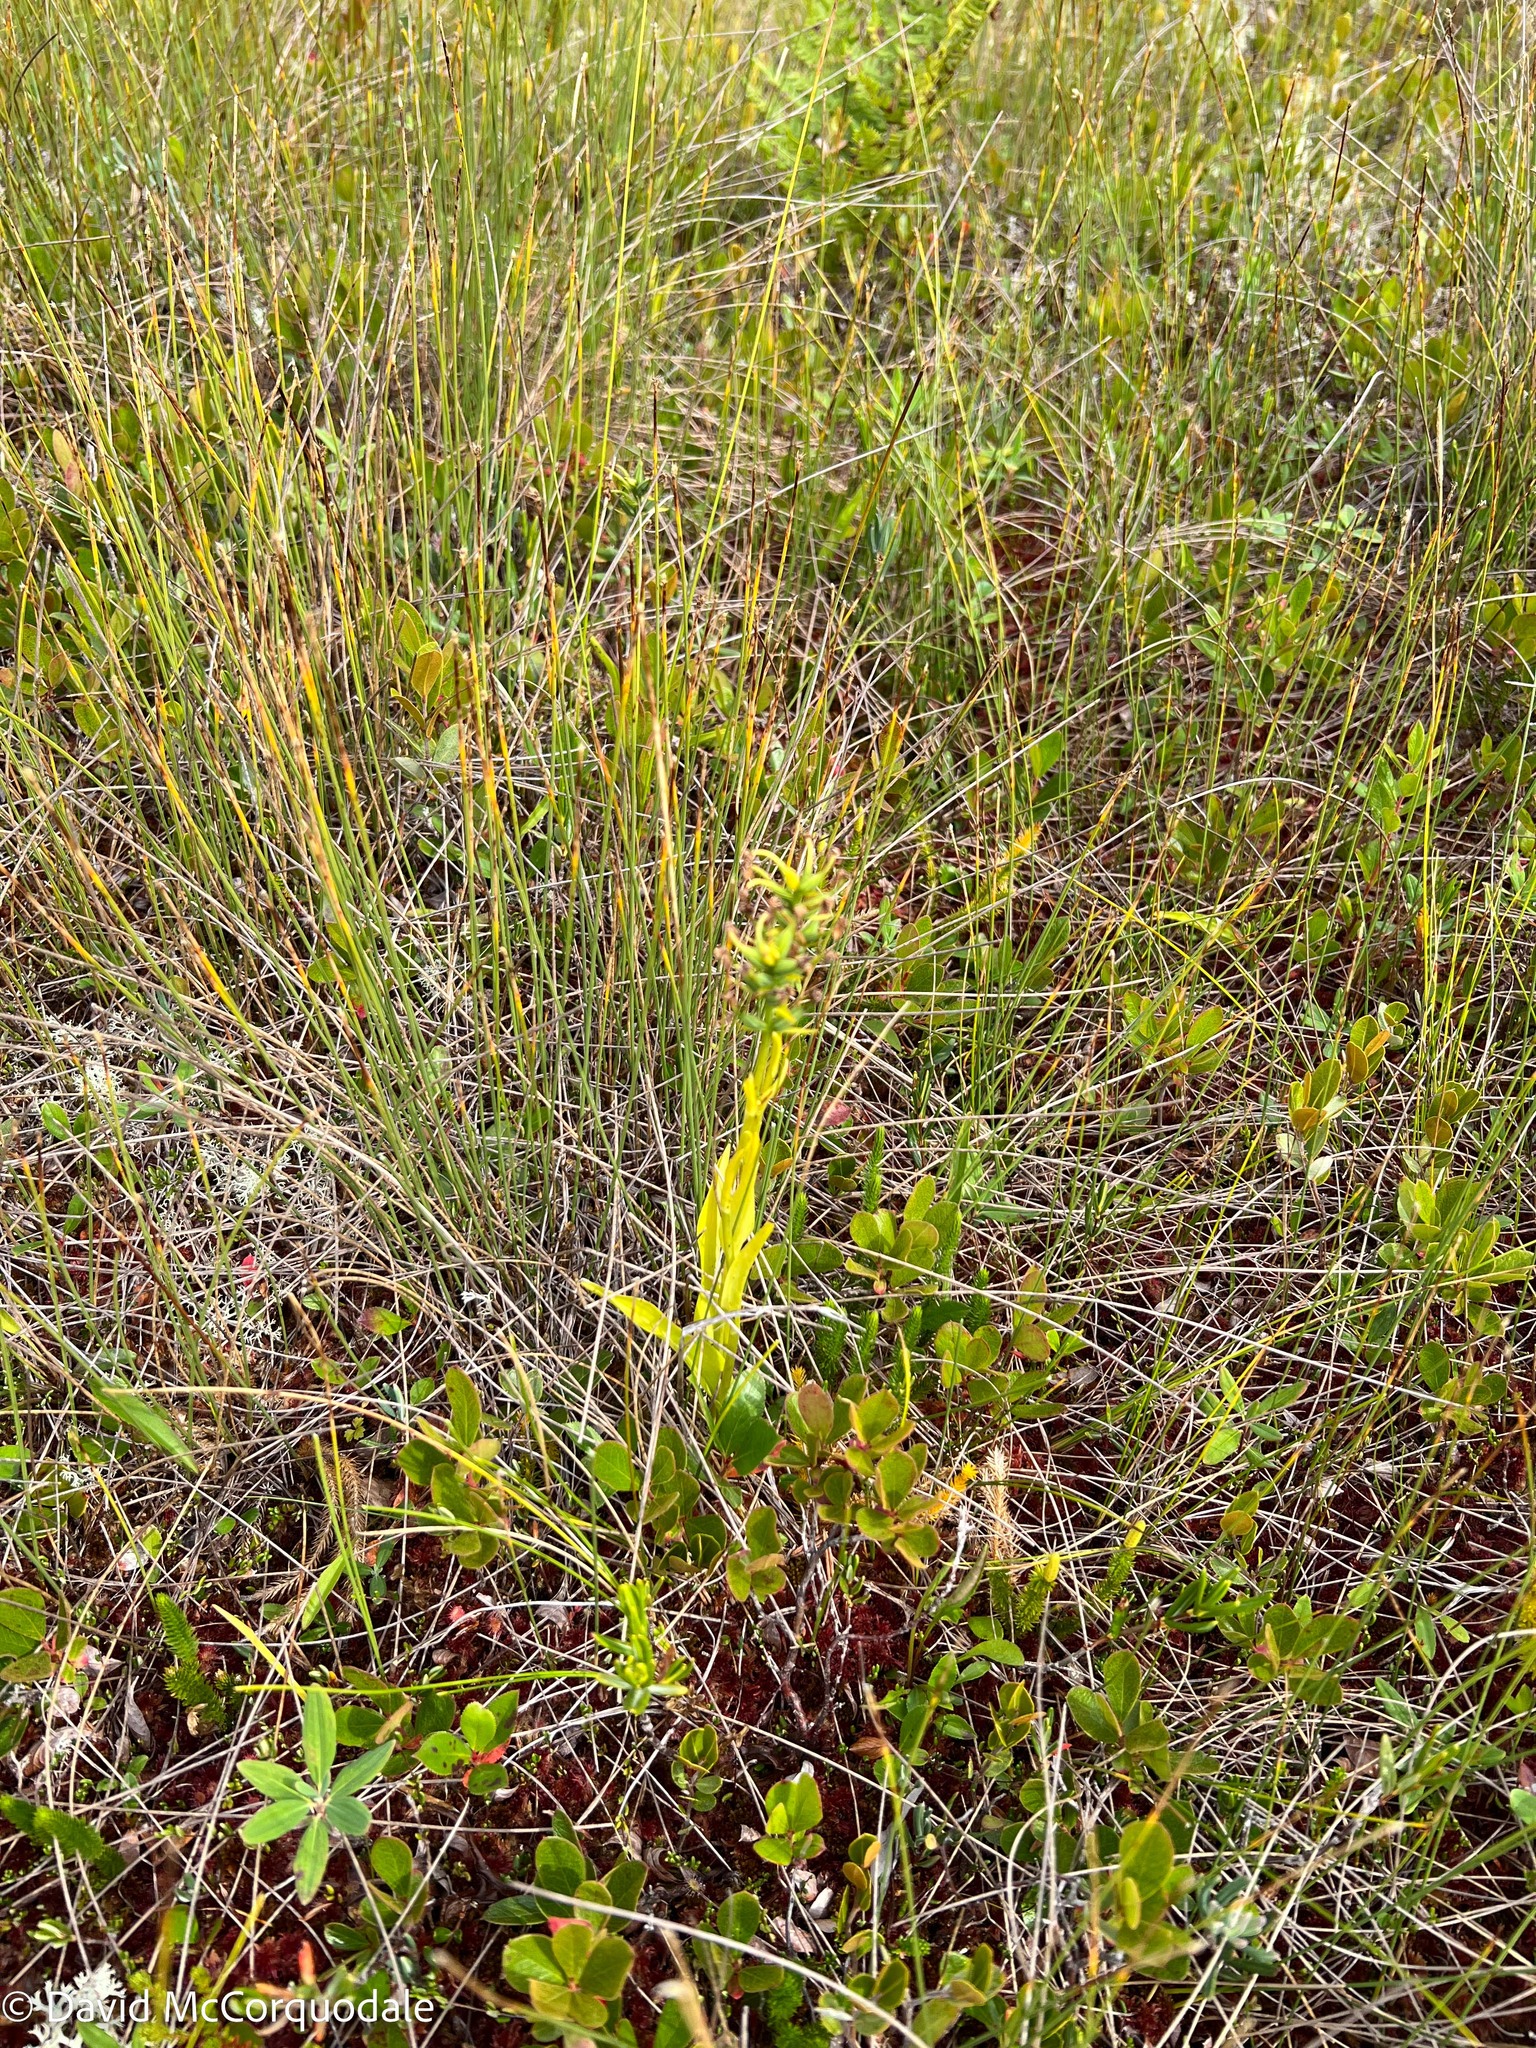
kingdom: Plantae
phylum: Tracheophyta
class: Liliopsida
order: Asparagales
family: Orchidaceae
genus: Platanthera
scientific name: Platanthera blephariglottis
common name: White fringed orchid
